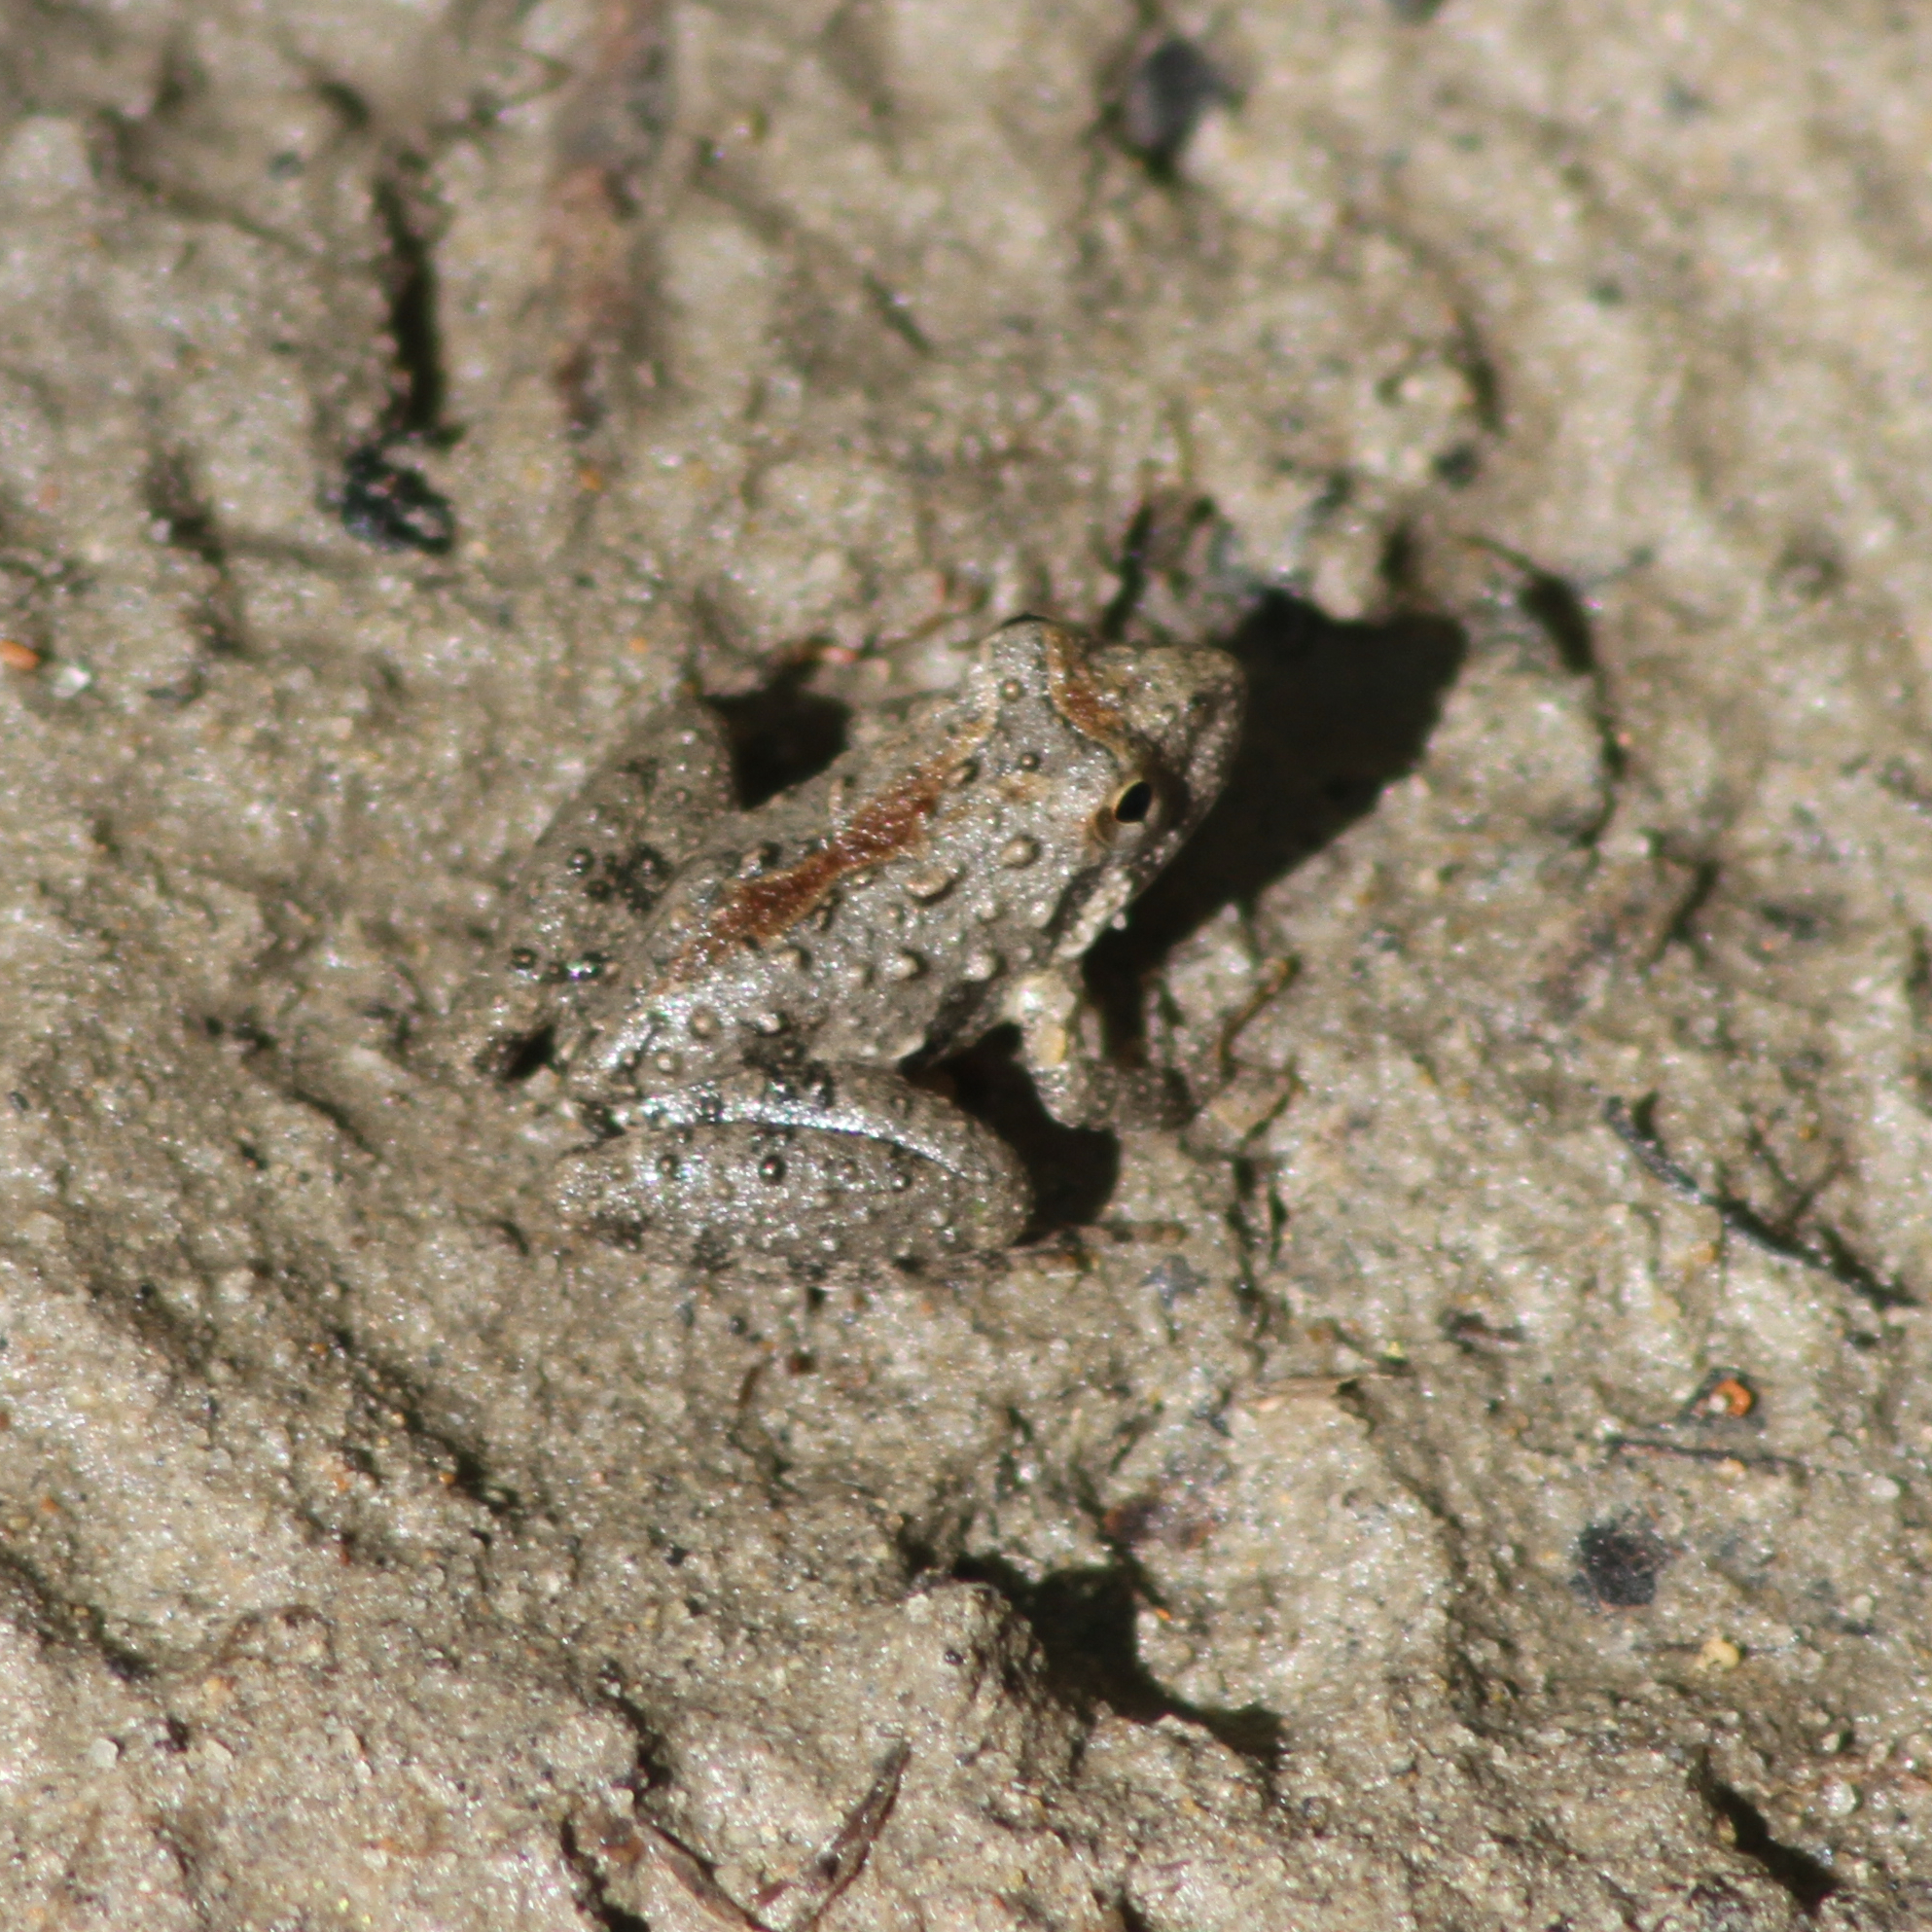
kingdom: Animalia
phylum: Chordata
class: Amphibia
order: Anura
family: Hylidae
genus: Acris
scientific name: Acris blanchardi
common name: Blanchard's cricket frog
